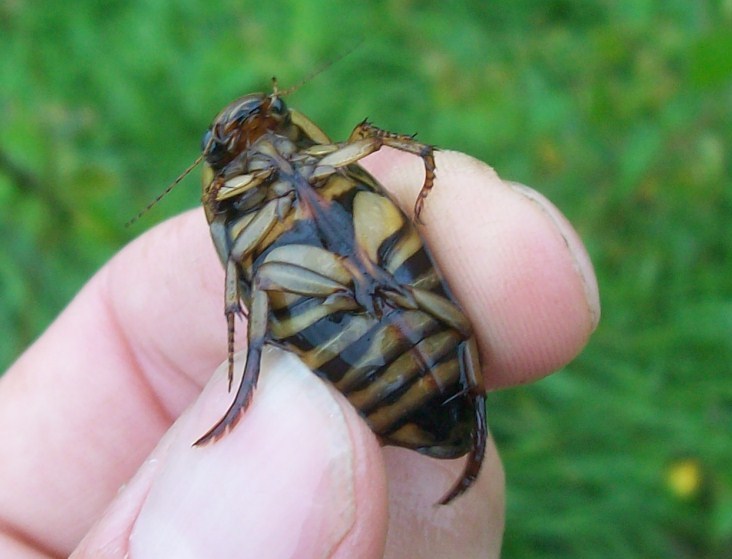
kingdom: Animalia
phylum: Arthropoda
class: Insecta
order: Coleoptera
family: Dytiscidae
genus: Dytiscus
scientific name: Dytiscus circumflexus
